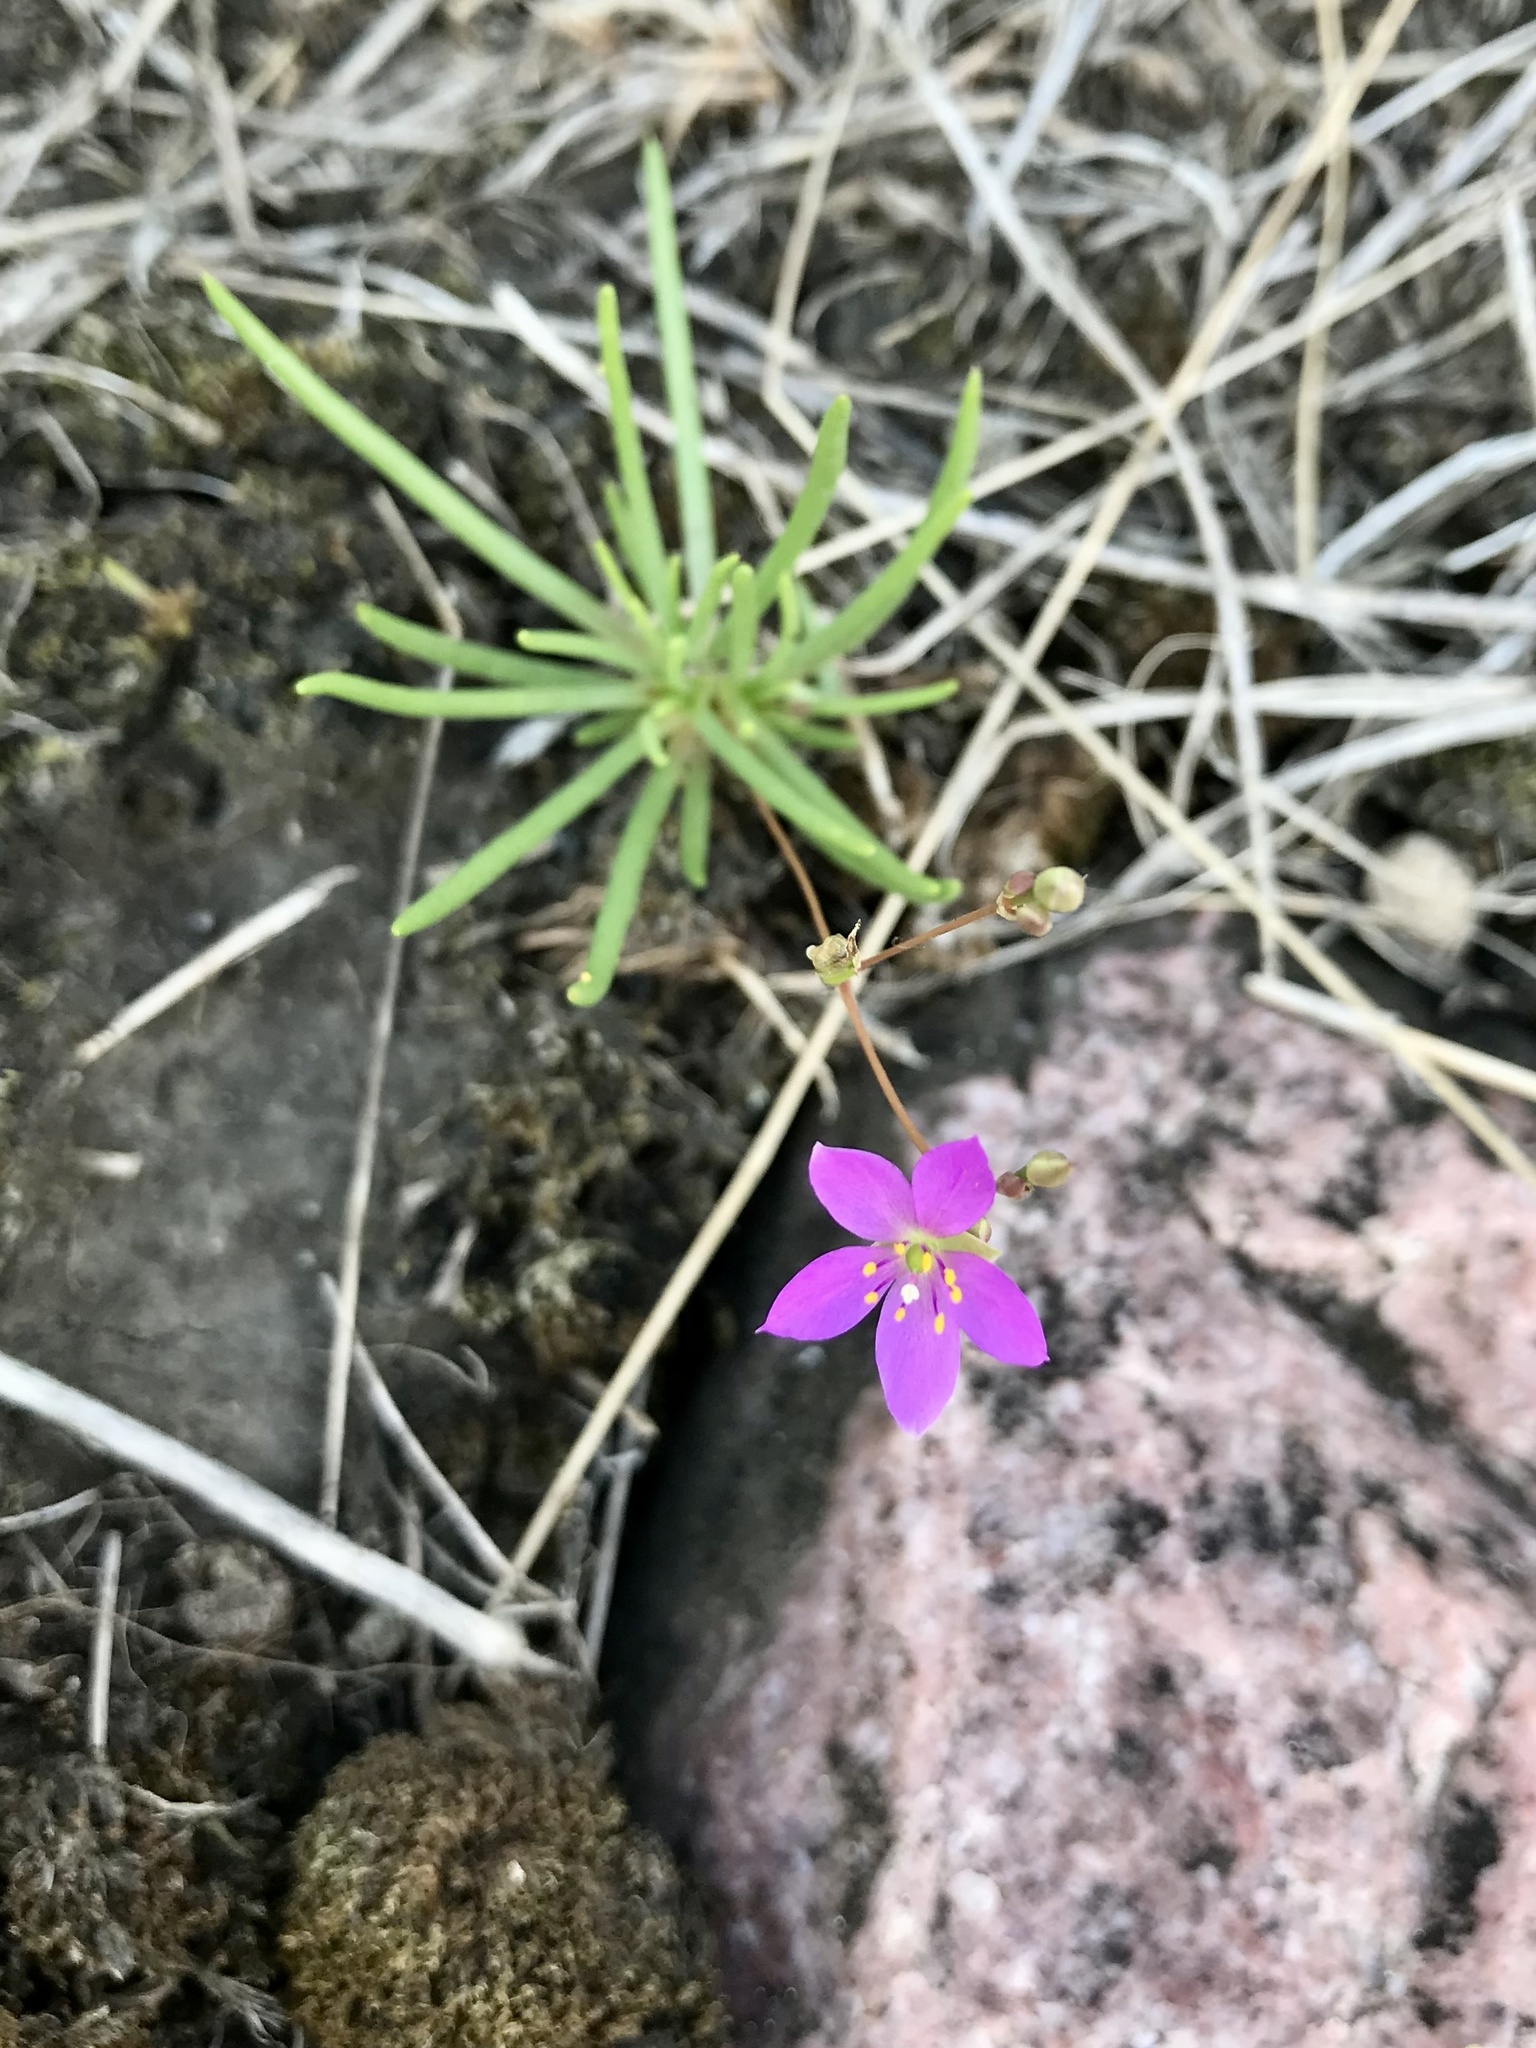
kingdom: Plantae
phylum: Tracheophyta
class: Magnoliopsida
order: Caryophyllales
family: Montiaceae
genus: Phemeranthus
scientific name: Phemeranthus parviflorus
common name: Sunbright
